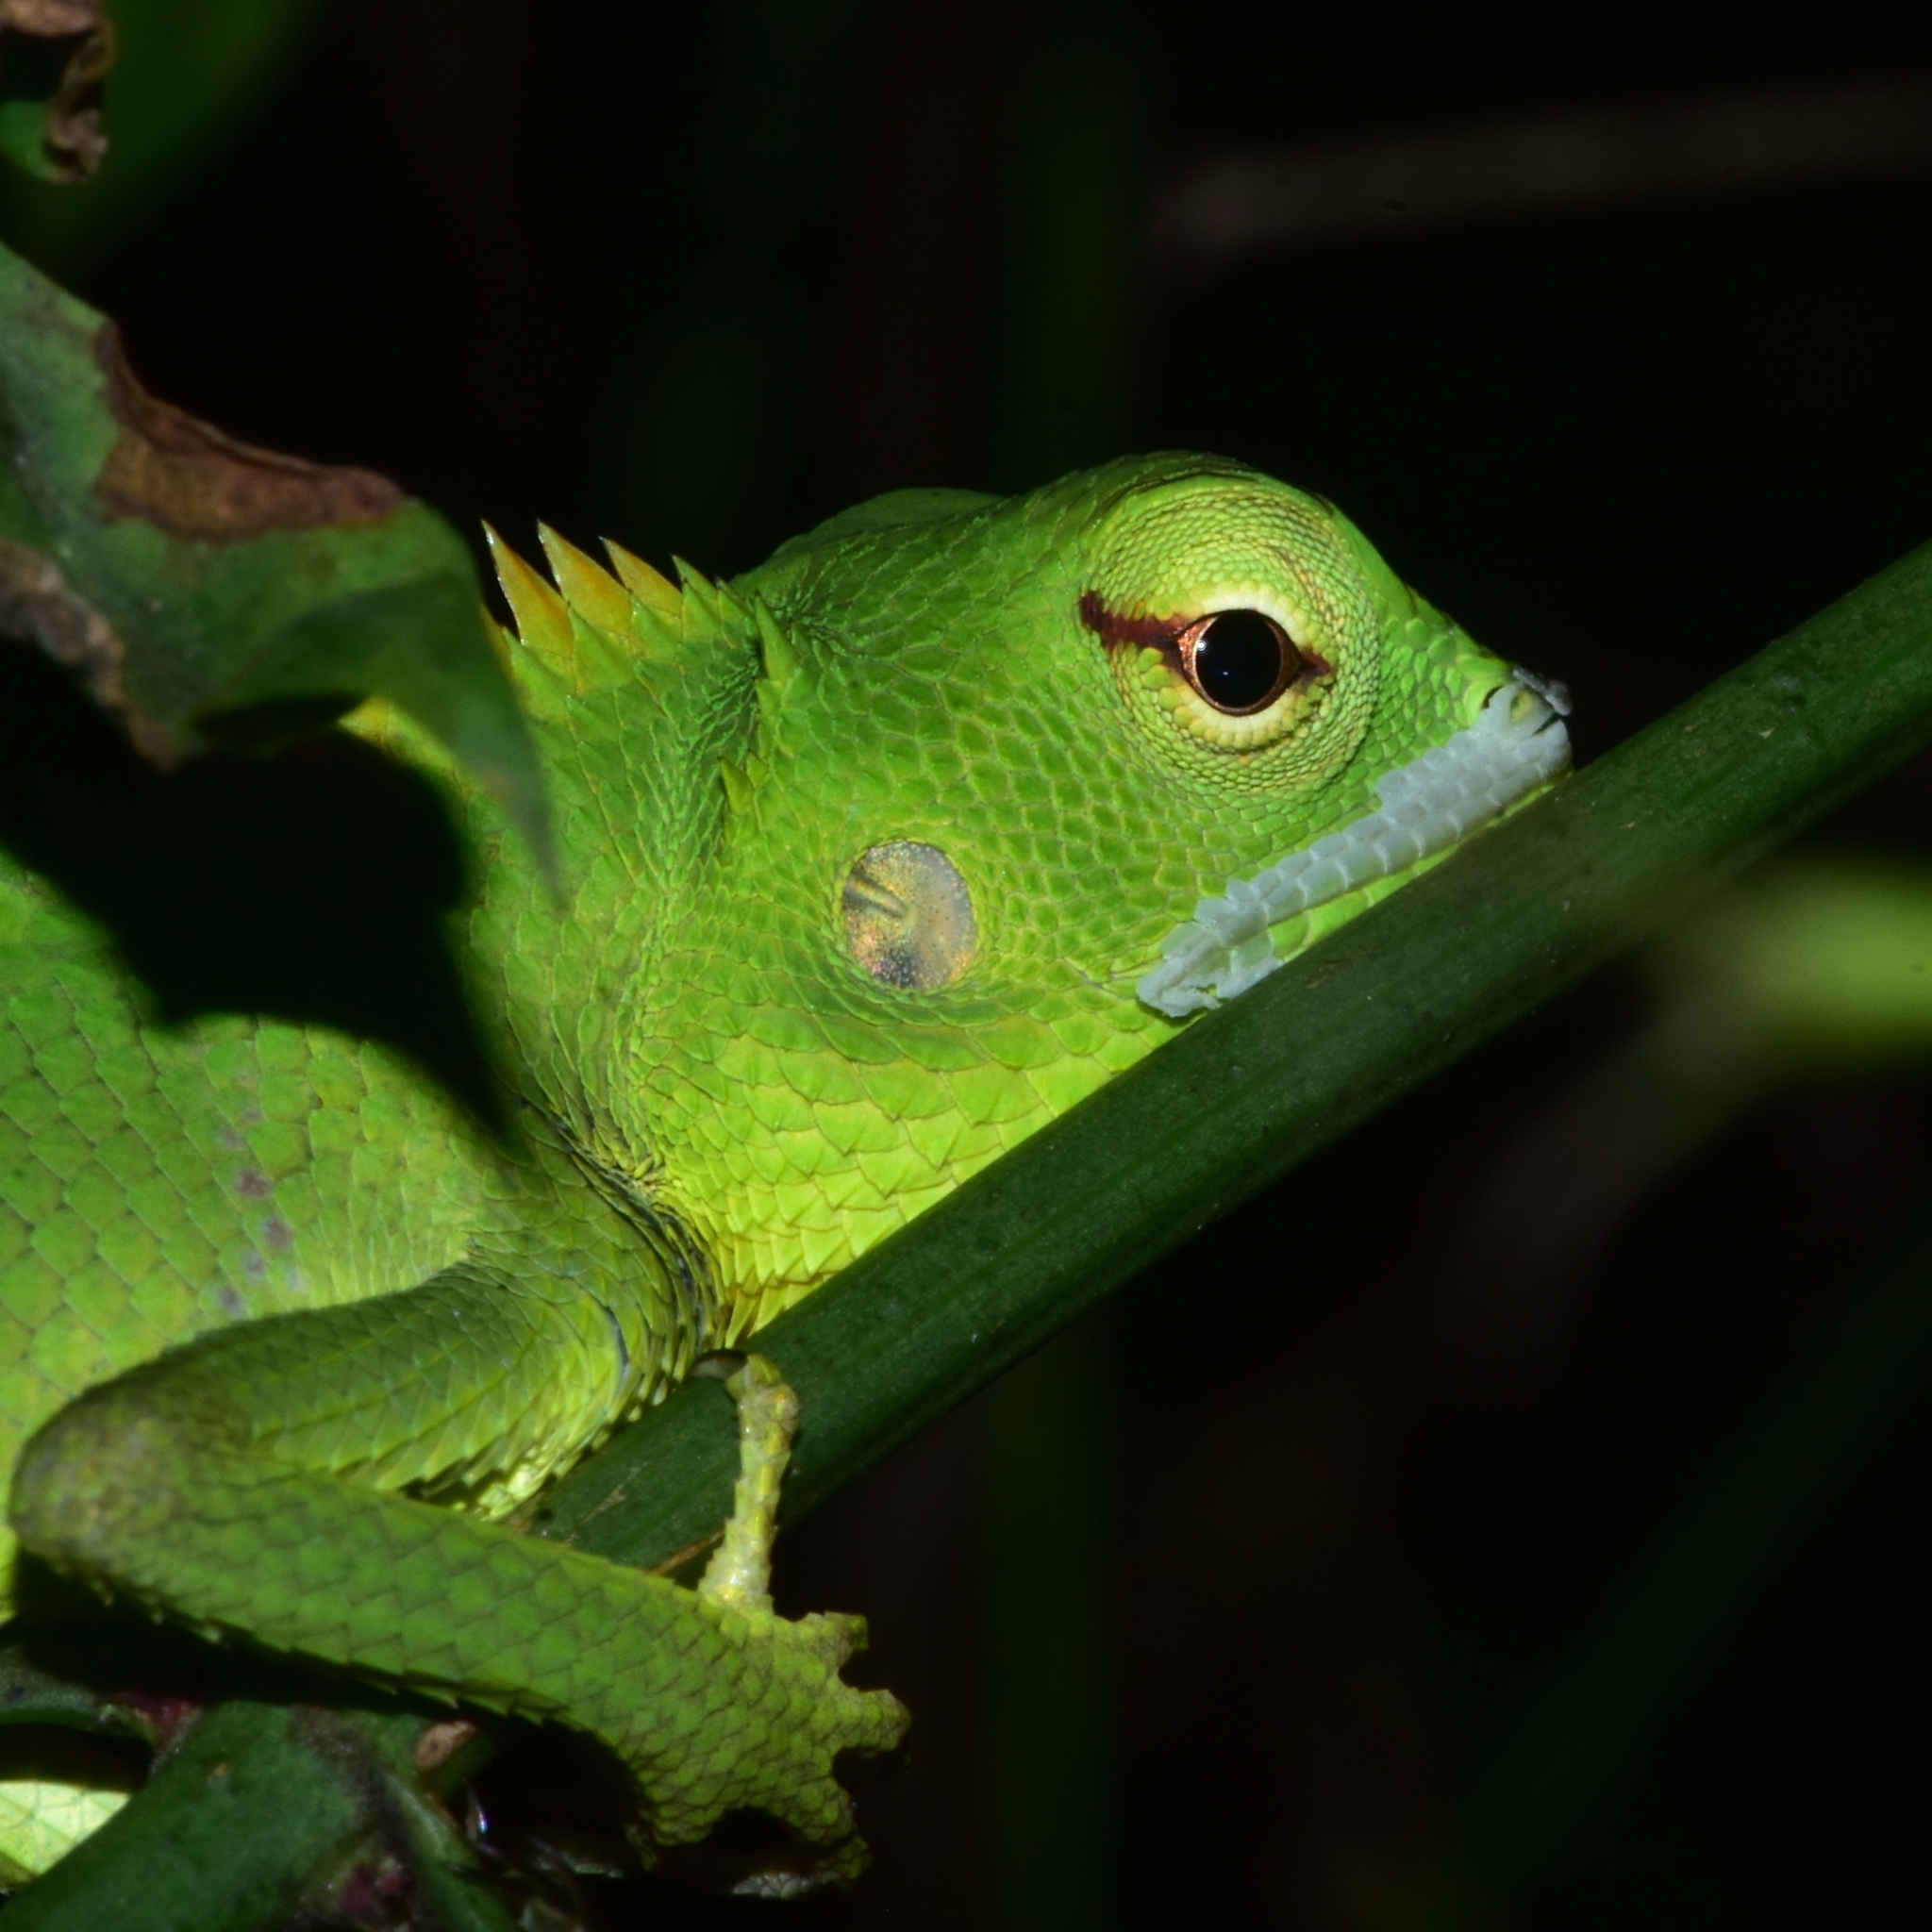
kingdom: Animalia
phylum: Chordata
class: Squamata
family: Agamidae
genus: Calotes
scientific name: Calotes calotes
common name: Common green forest lizard
